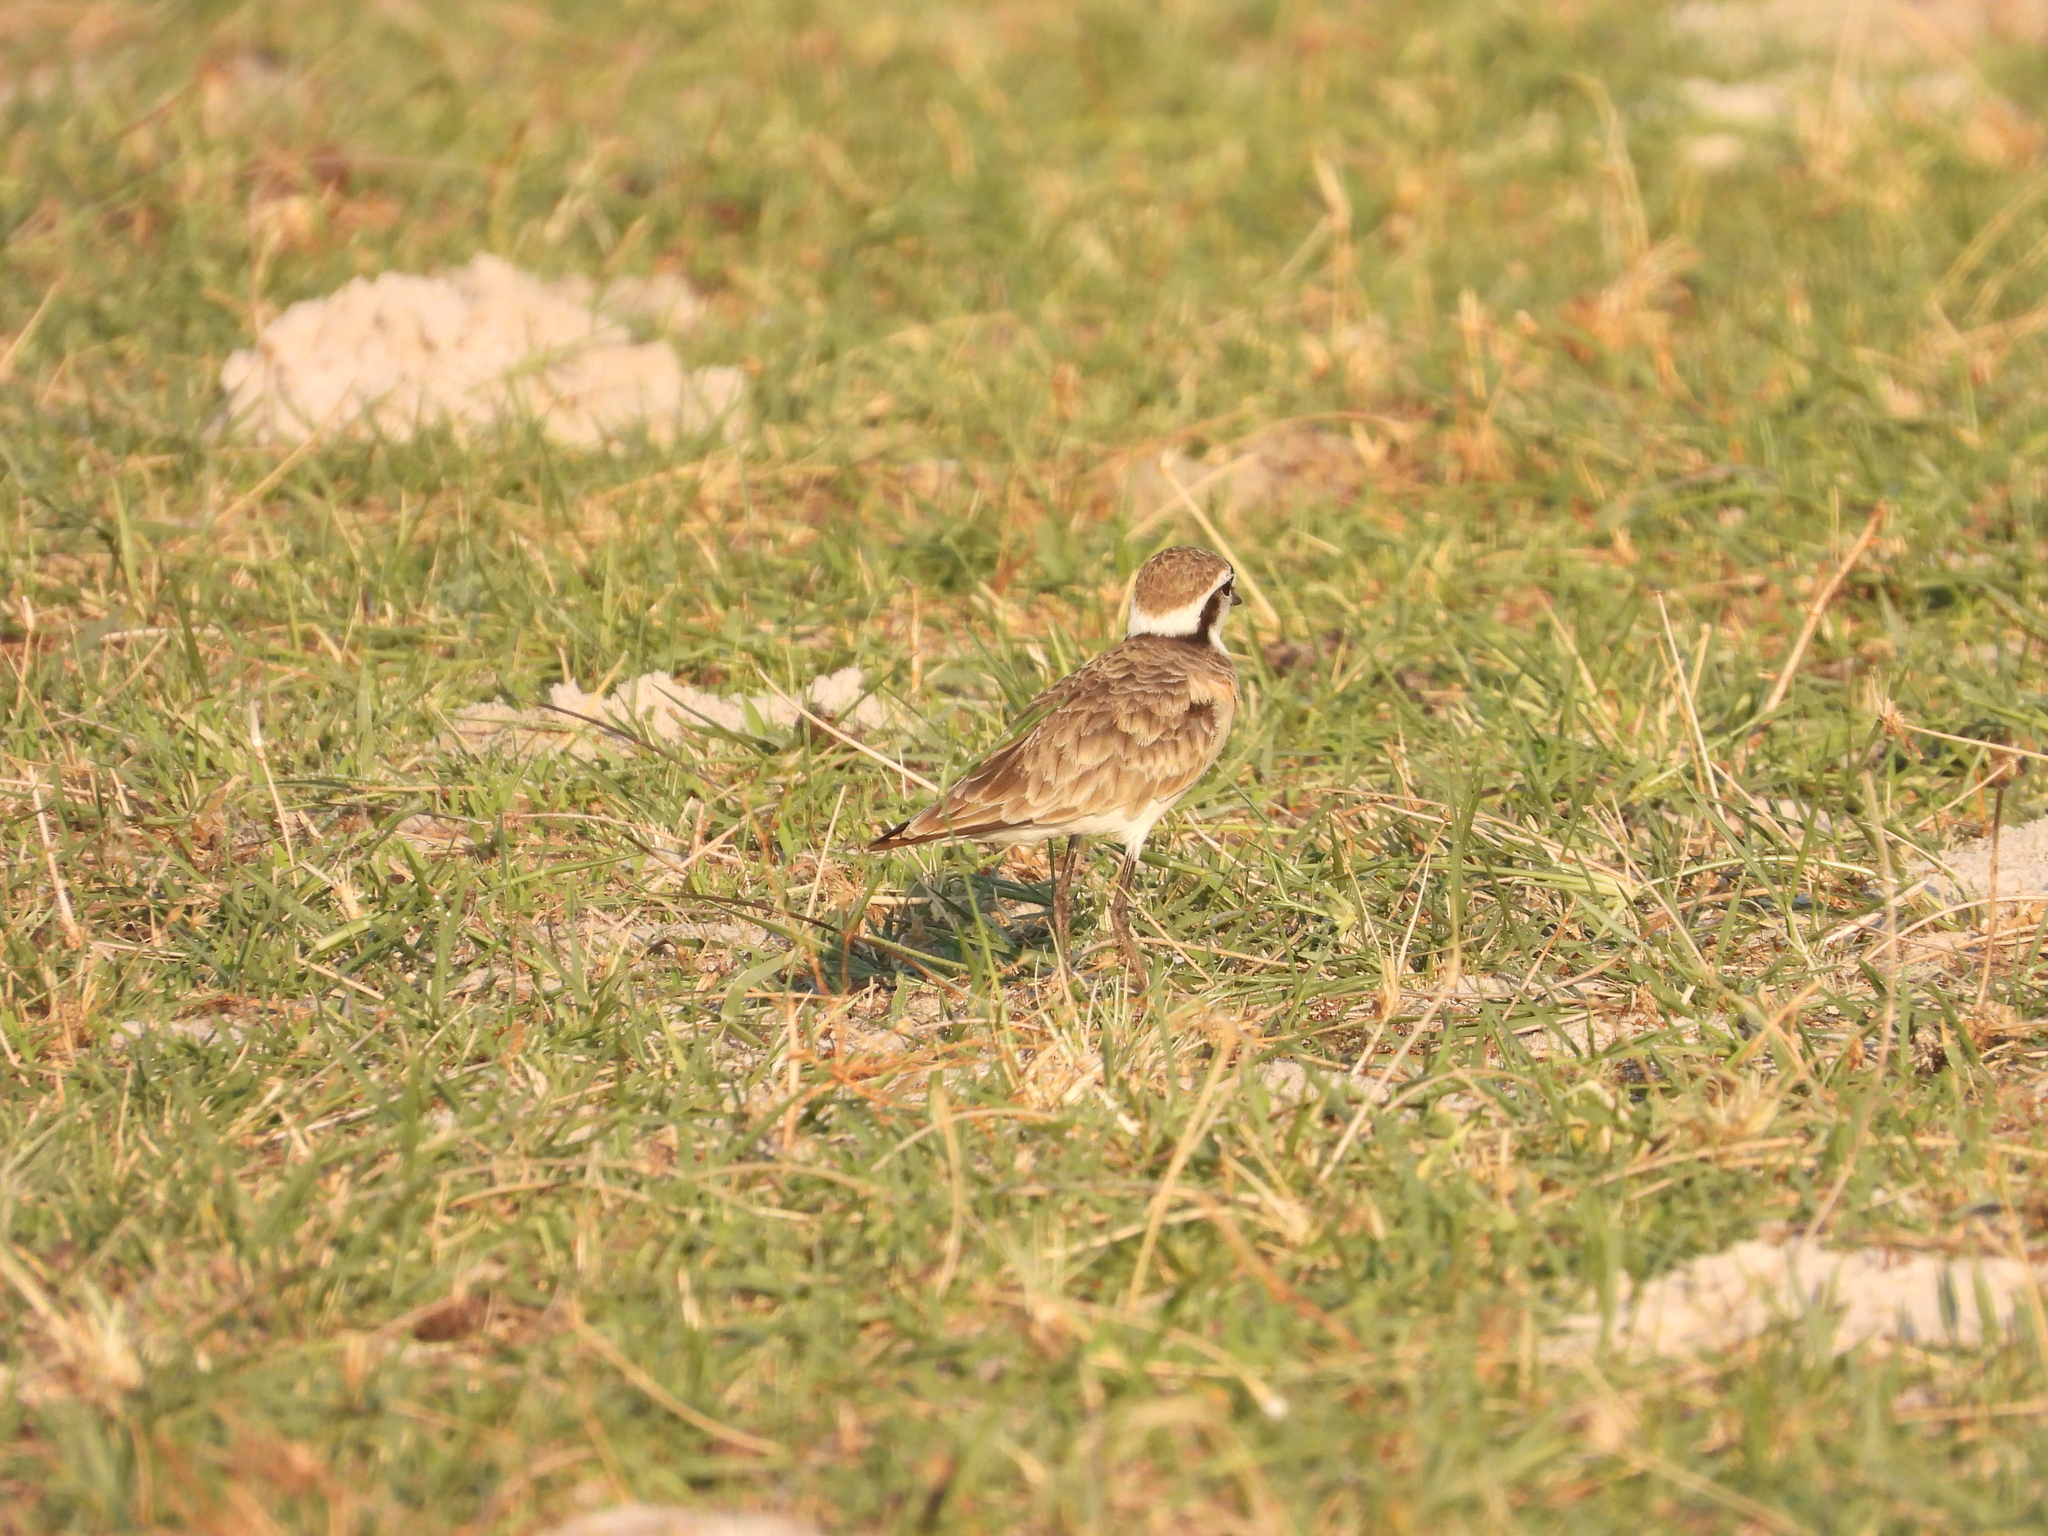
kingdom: Animalia
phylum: Chordata
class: Aves
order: Charadriiformes
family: Charadriidae
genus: Anarhynchus
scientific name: Anarhynchus
